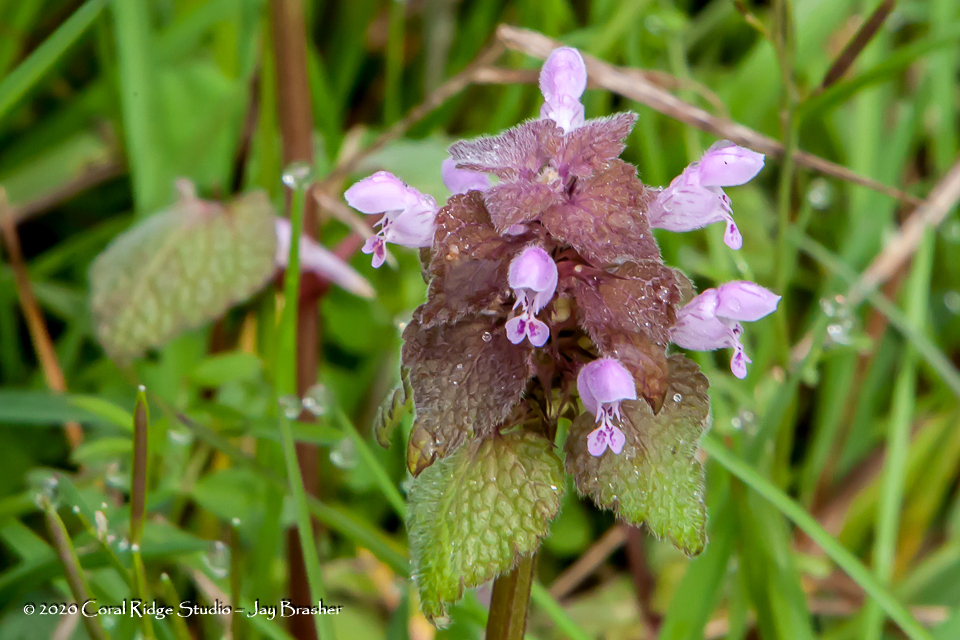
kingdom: Plantae
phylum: Tracheophyta
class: Magnoliopsida
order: Lamiales
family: Lamiaceae
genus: Lamium
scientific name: Lamium purpureum
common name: Red dead-nettle
